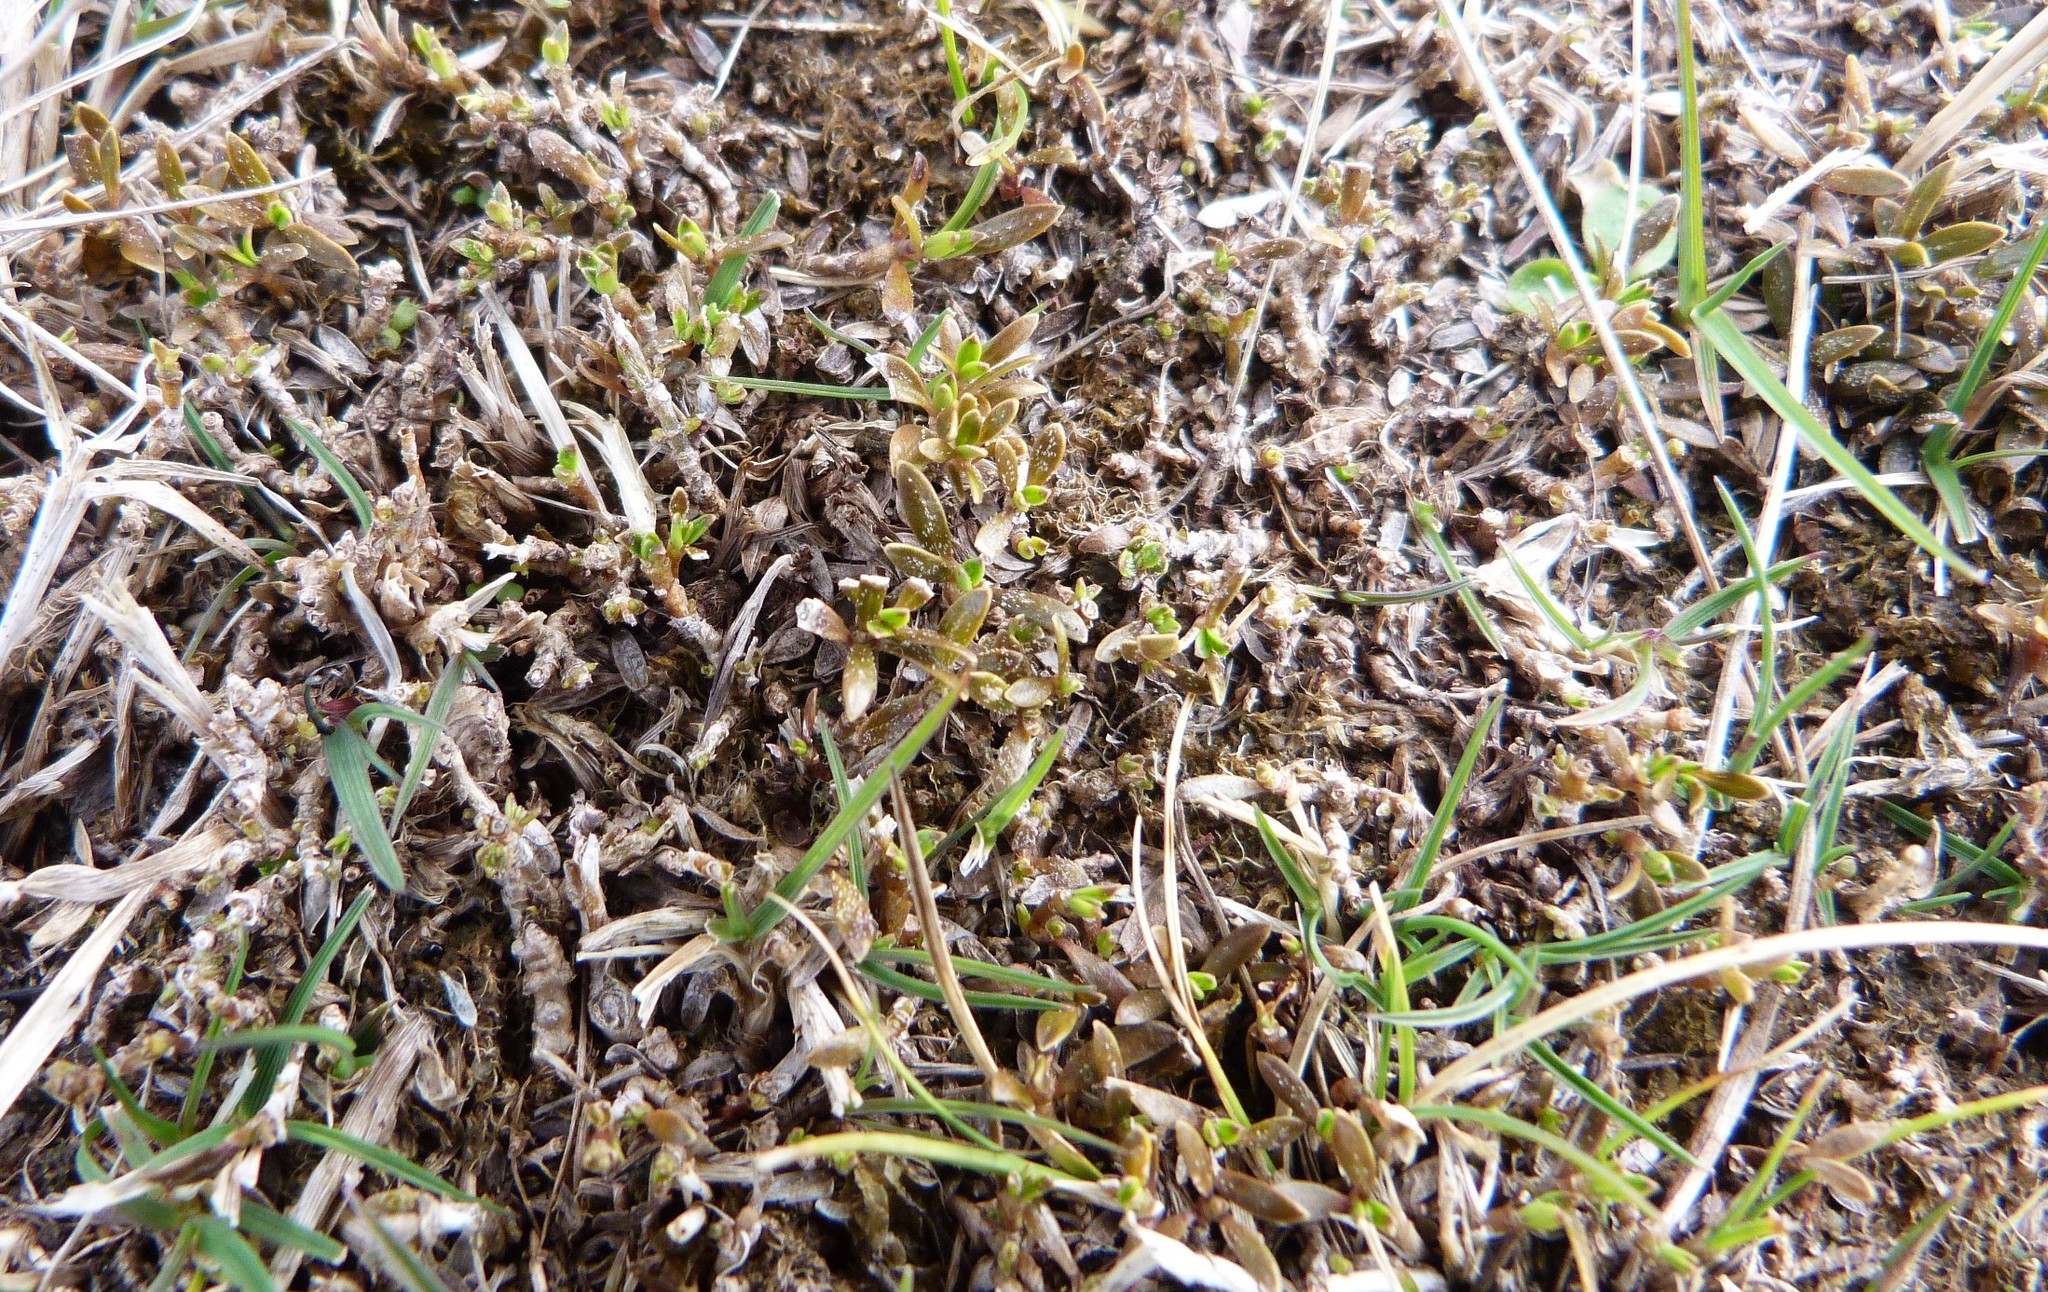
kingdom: Plantae
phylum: Tracheophyta
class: Magnoliopsida
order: Gentianales
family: Rubiaceae
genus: Coprosma
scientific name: Coprosma atropurpurea
